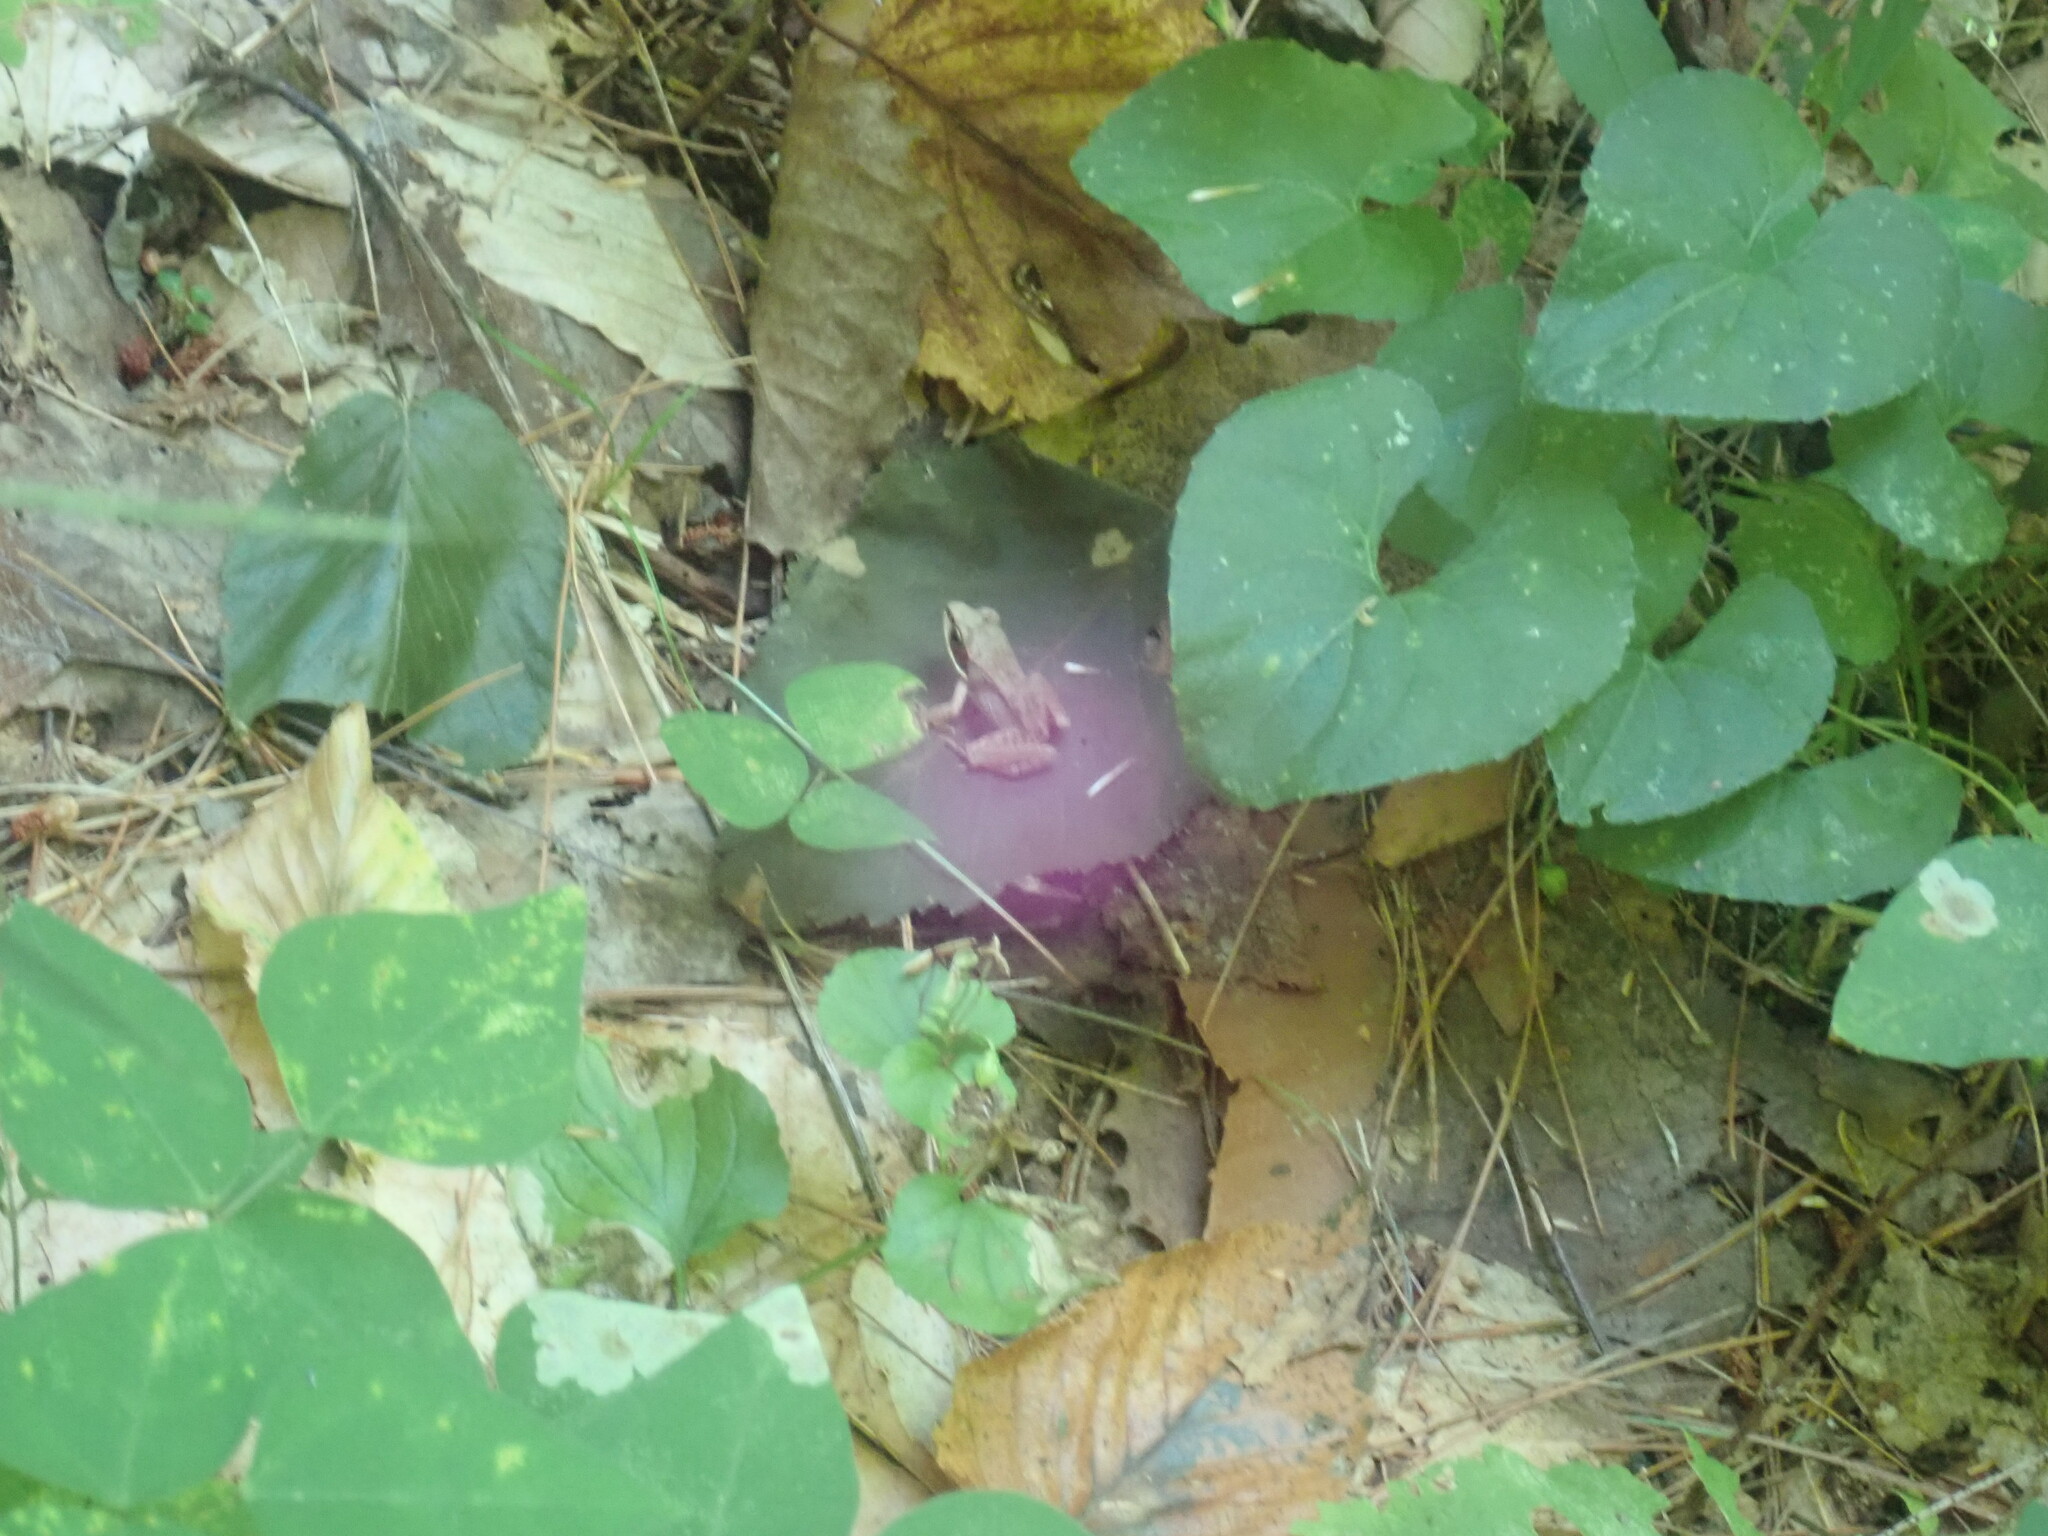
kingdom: Animalia
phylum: Chordata
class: Amphibia
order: Anura
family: Ranidae
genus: Lithobates
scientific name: Lithobates sylvaticus
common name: Wood frog
